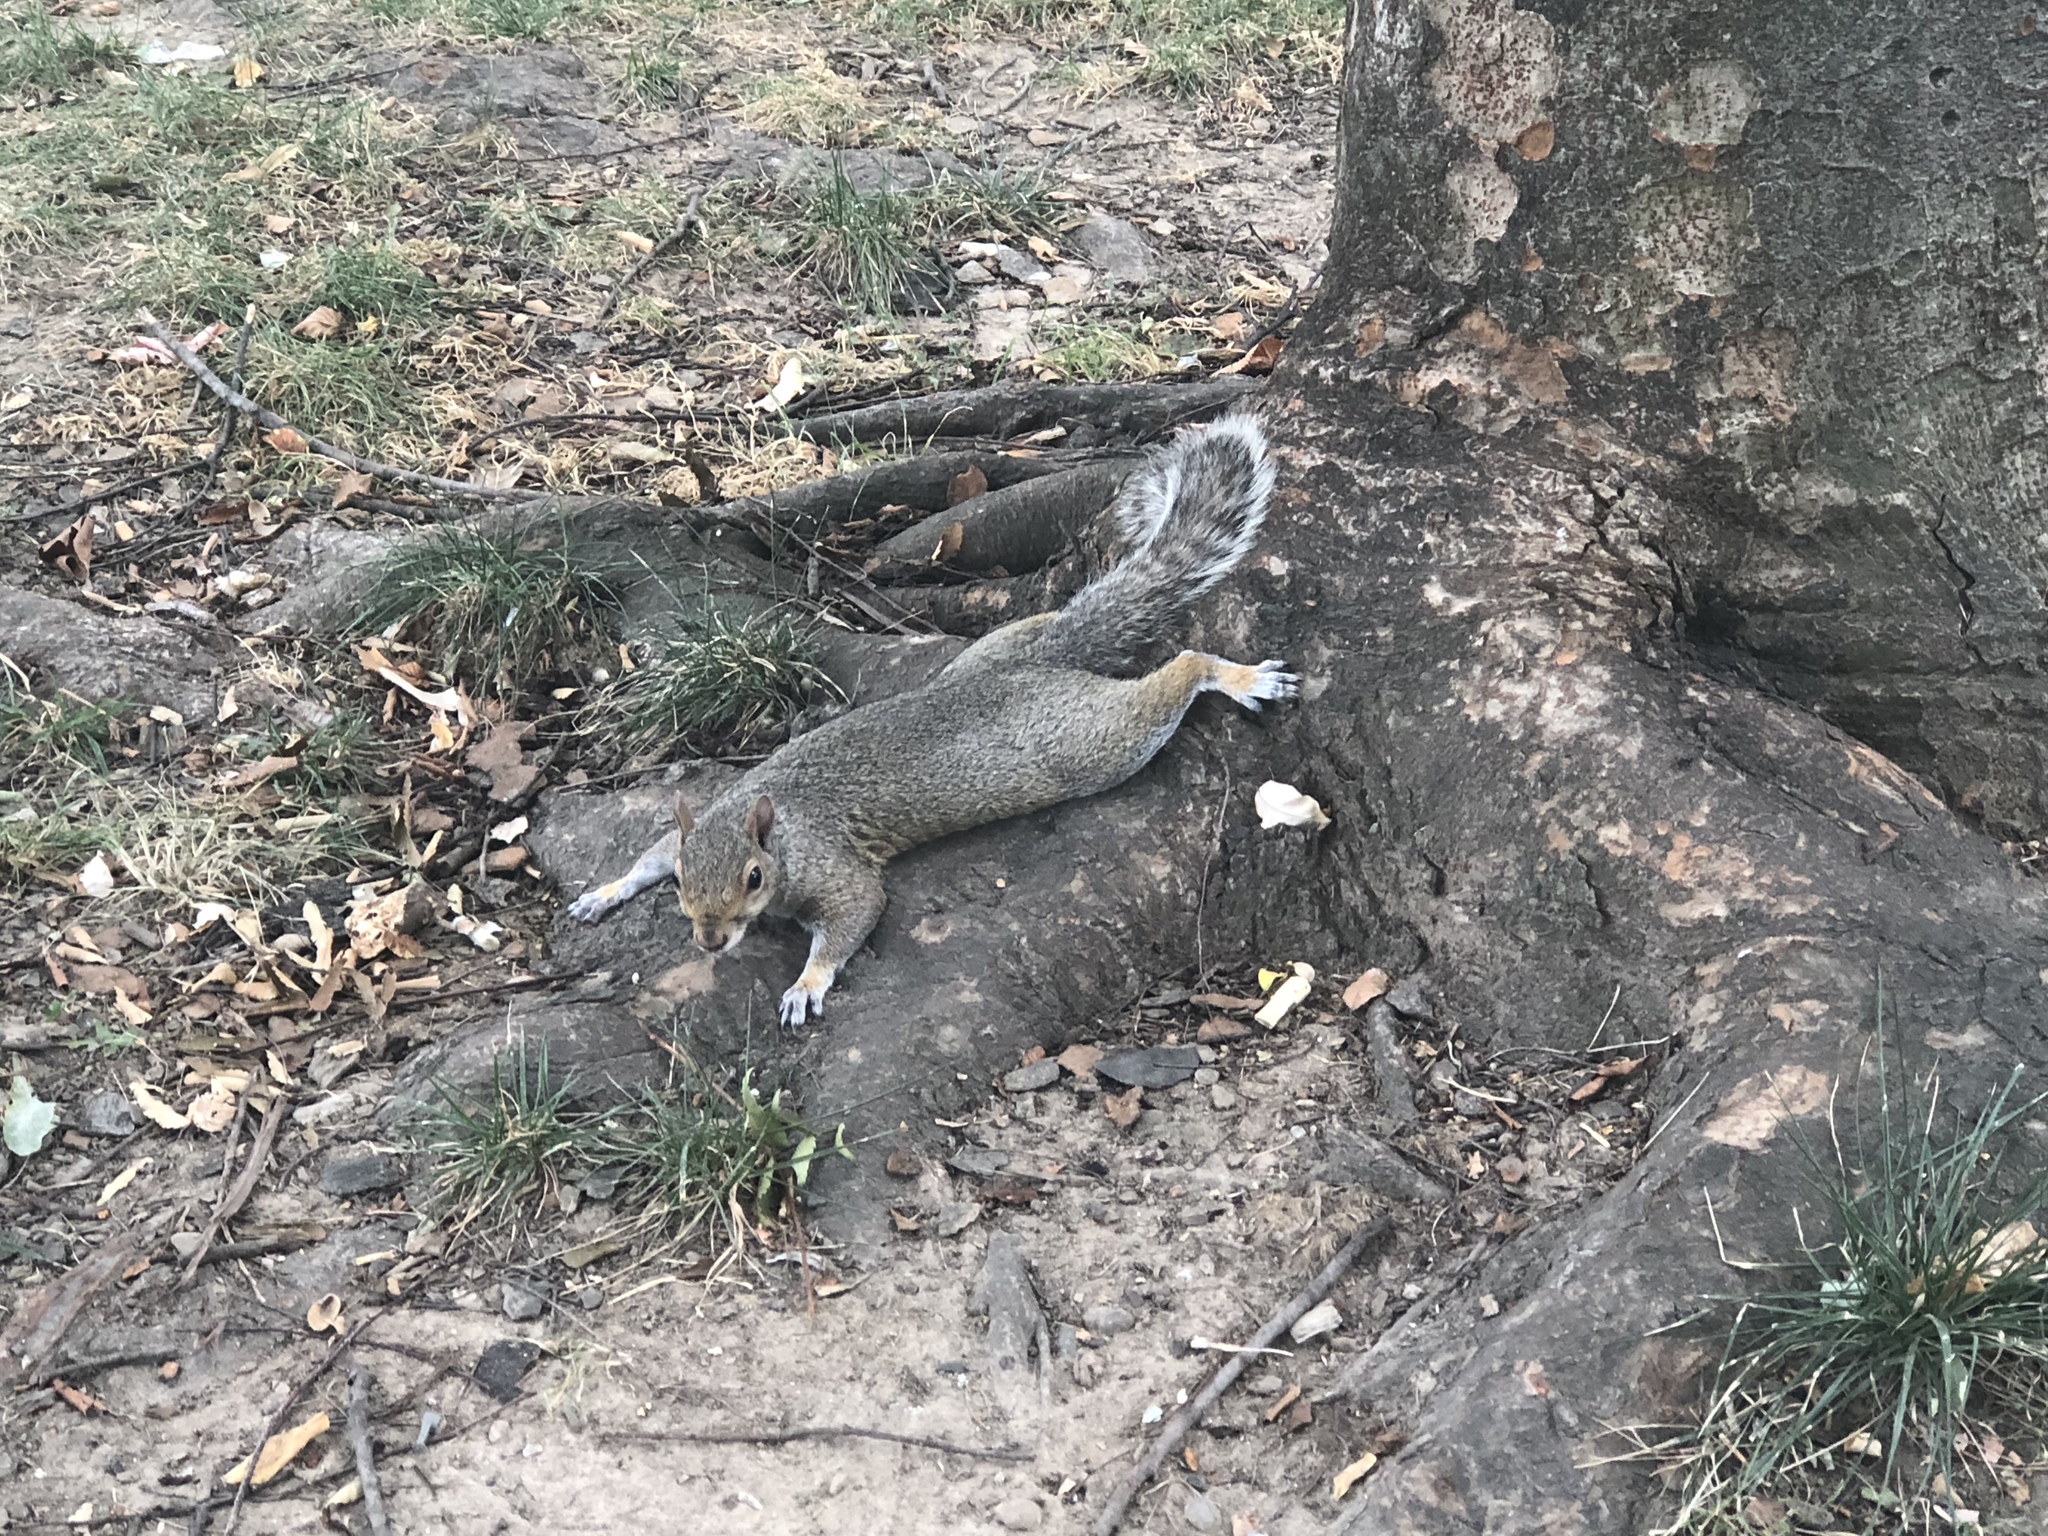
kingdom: Animalia
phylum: Chordata
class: Mammalia
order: Rodentia
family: Sciuridae
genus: Sciurus
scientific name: Sciurus carolinensis
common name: Eastern gray squirrel
